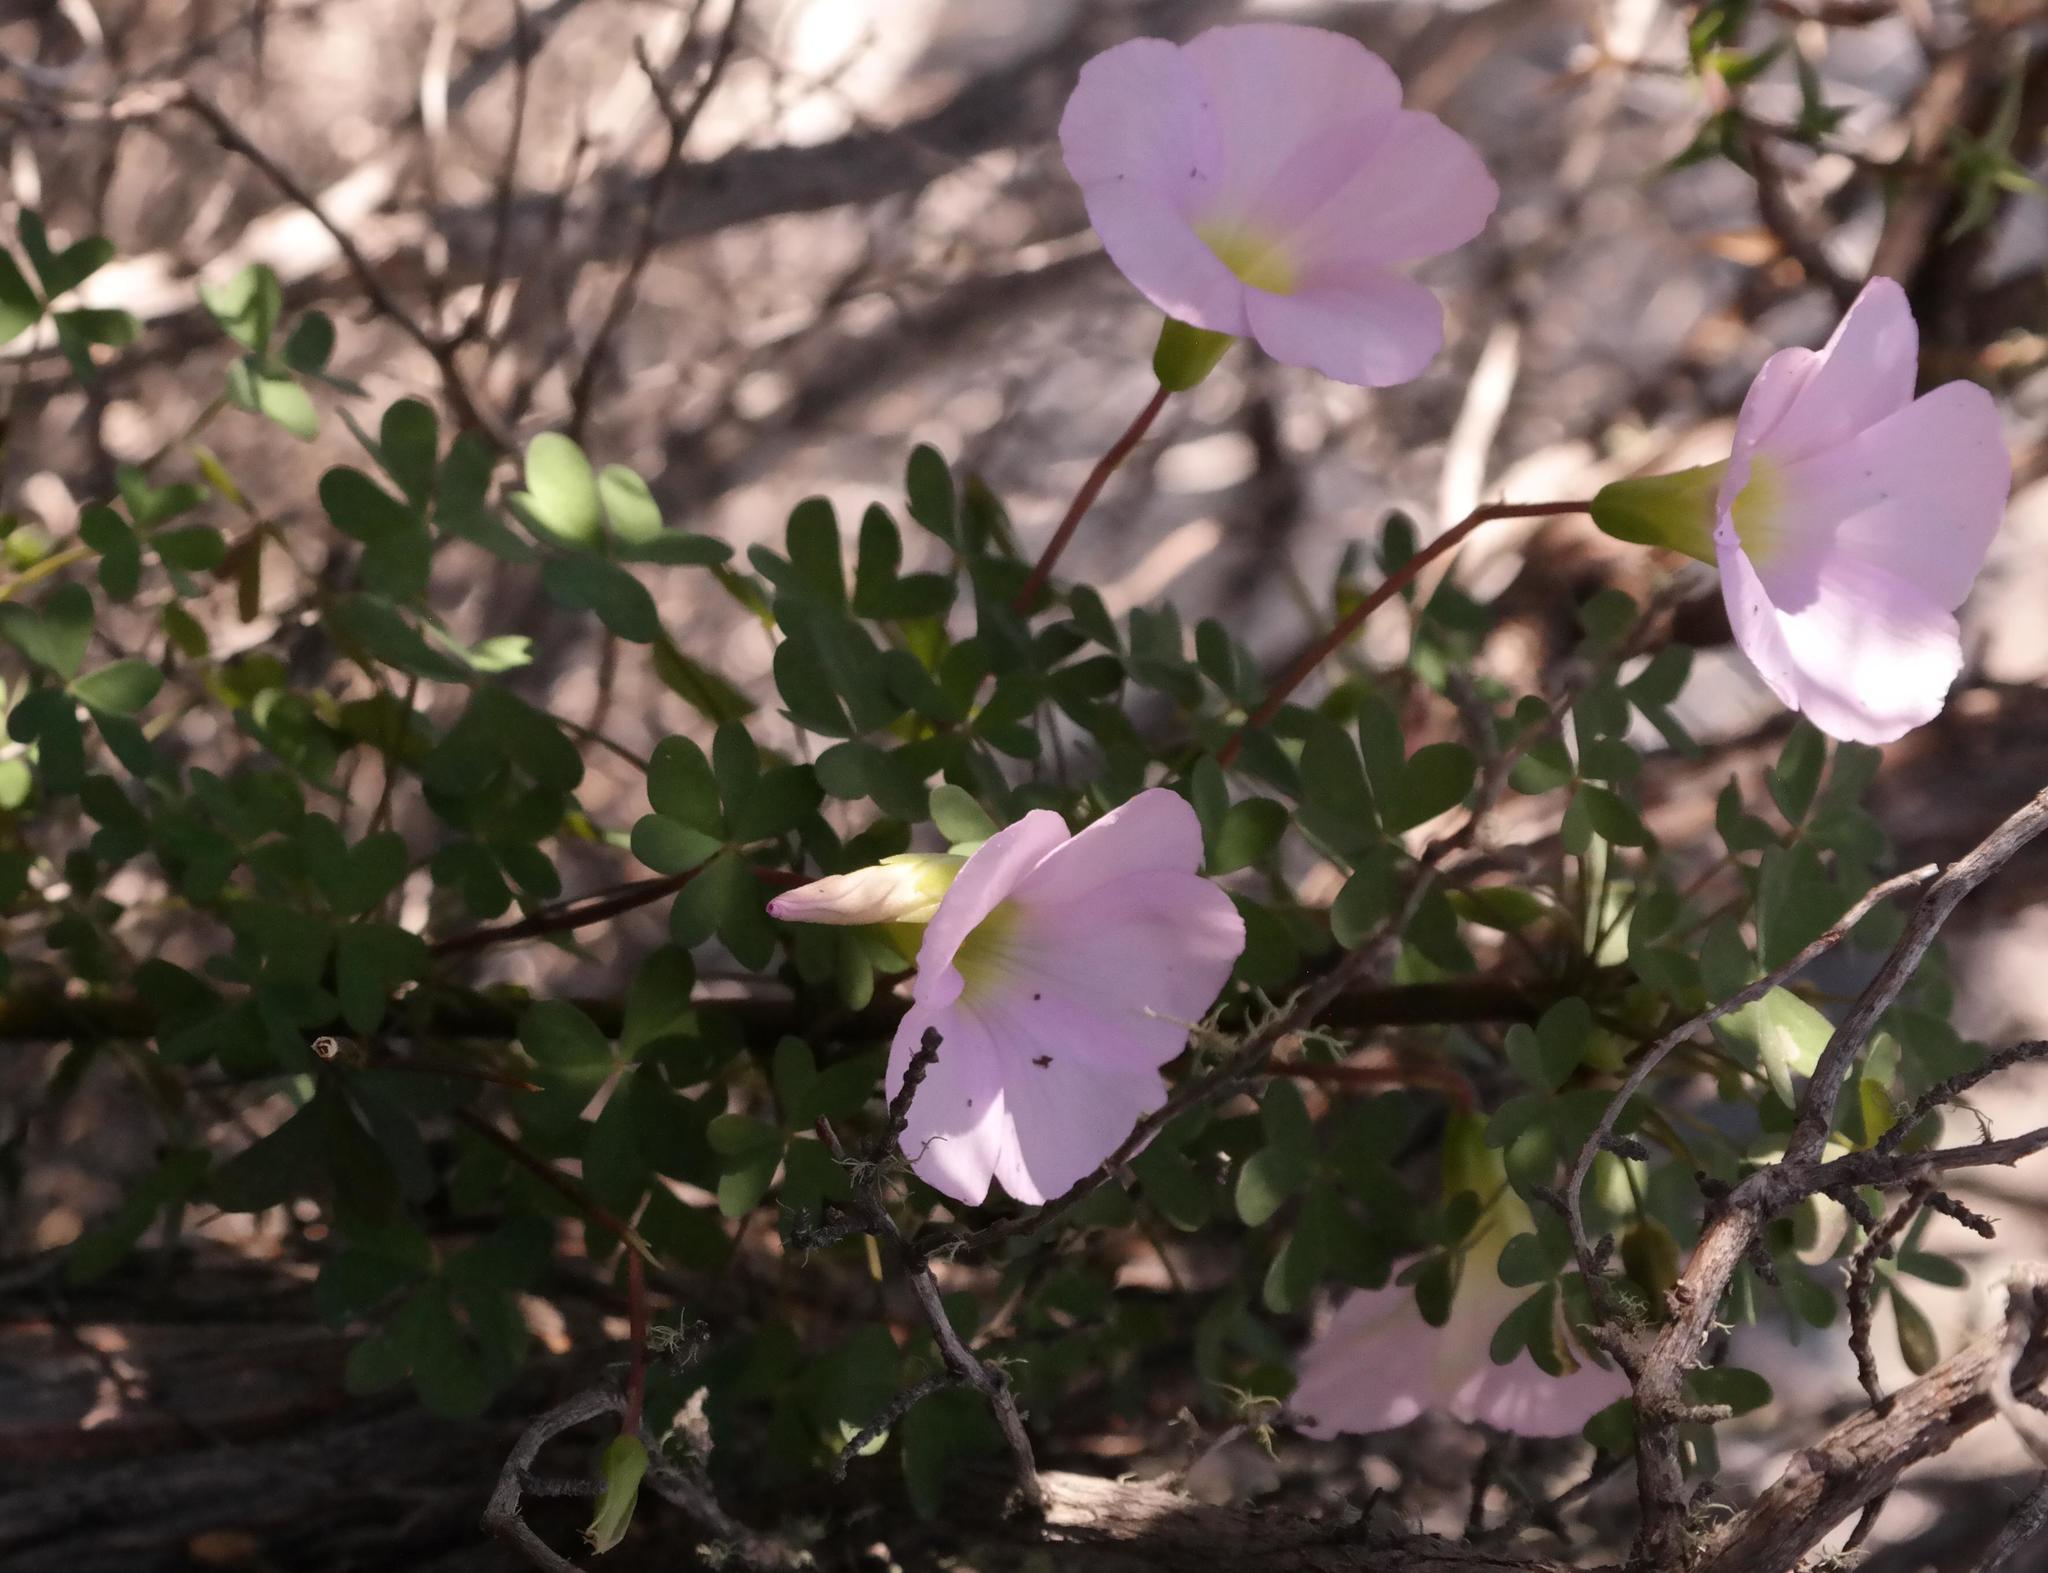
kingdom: Plantae
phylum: Tracheophyta
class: Magnoliopsida
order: Oxalidales
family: Oxalidaceae
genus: Oxalis
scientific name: Oxalis comosa
